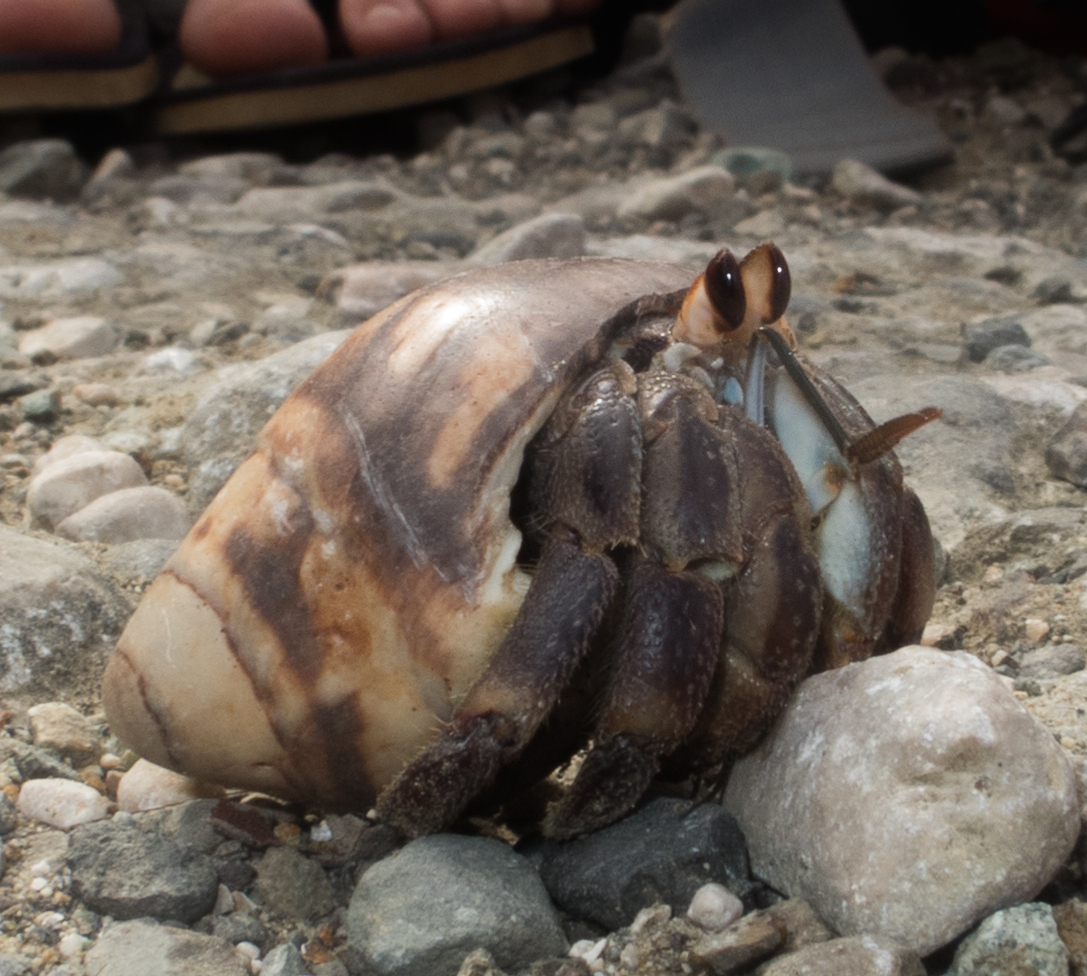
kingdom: Animalia
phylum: Arthropoda
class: Malacostraca
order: Decapoda
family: Coenobitidae
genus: Coenobita
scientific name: Coenobita compressus
